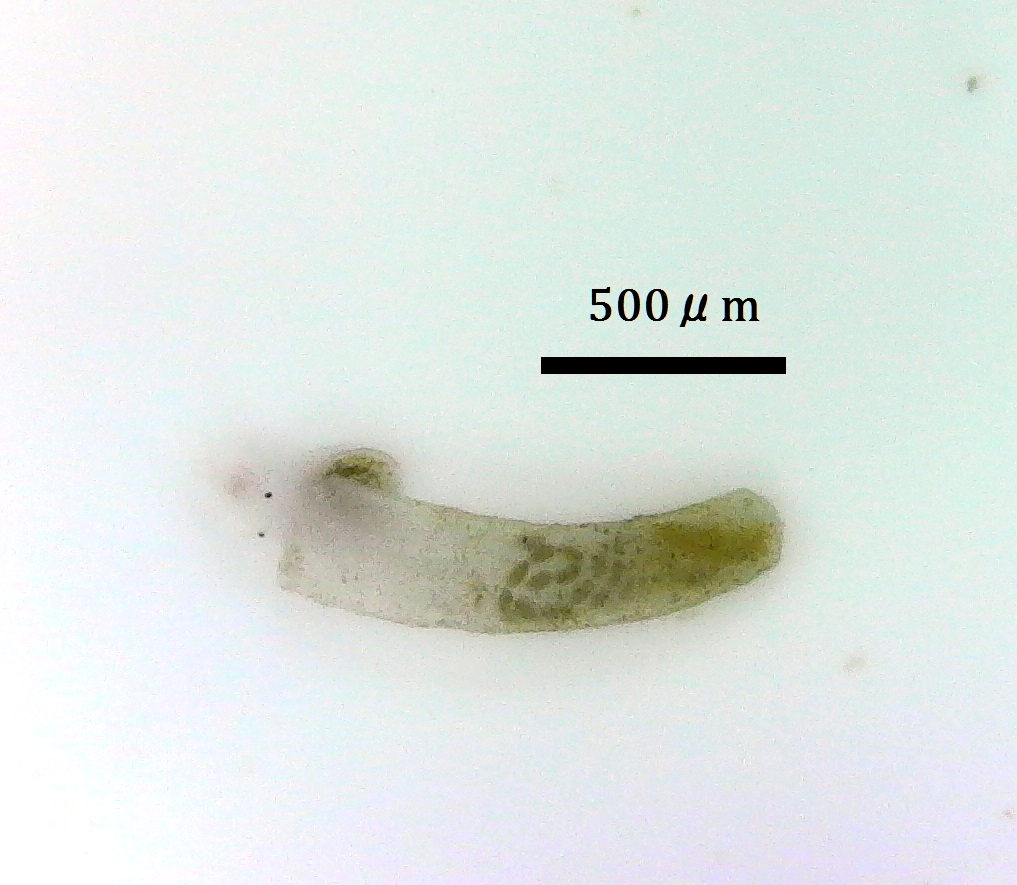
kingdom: Animalia
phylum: Mollusca
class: Gastropoda
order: Littorinimorpha
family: Caecidae
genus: Caecum
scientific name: Caecum
